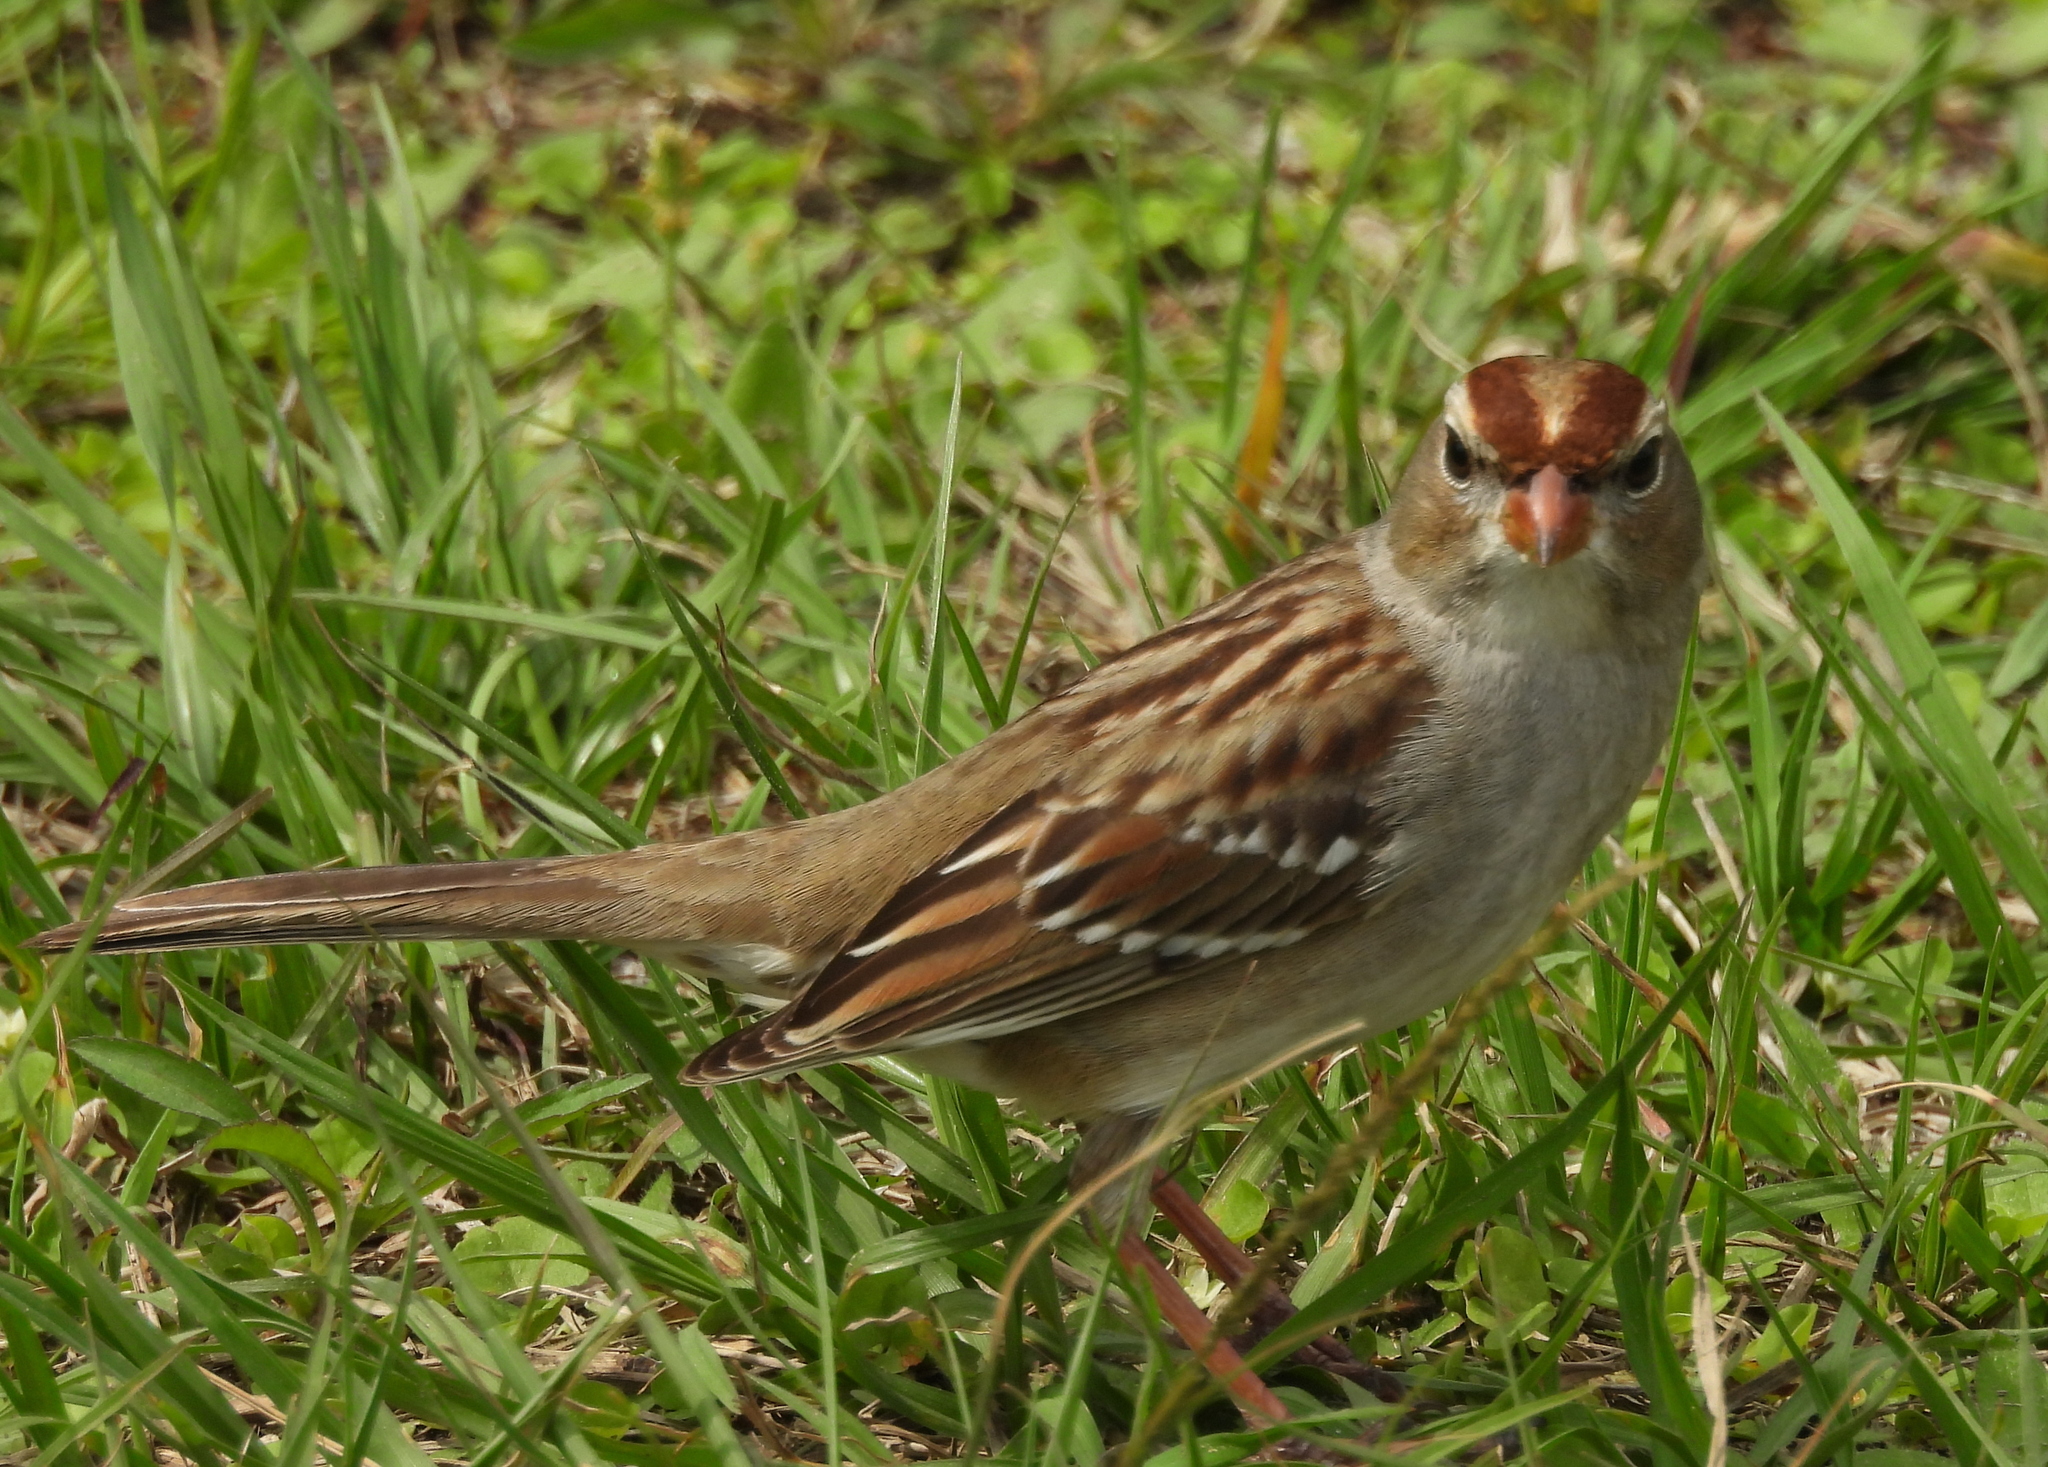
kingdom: Animalia
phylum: Chordata
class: Aves
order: Passeriformes
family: Passerellidae
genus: Zonotrichia
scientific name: Zonotrichia leucophrys
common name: White-crowned sparrow
